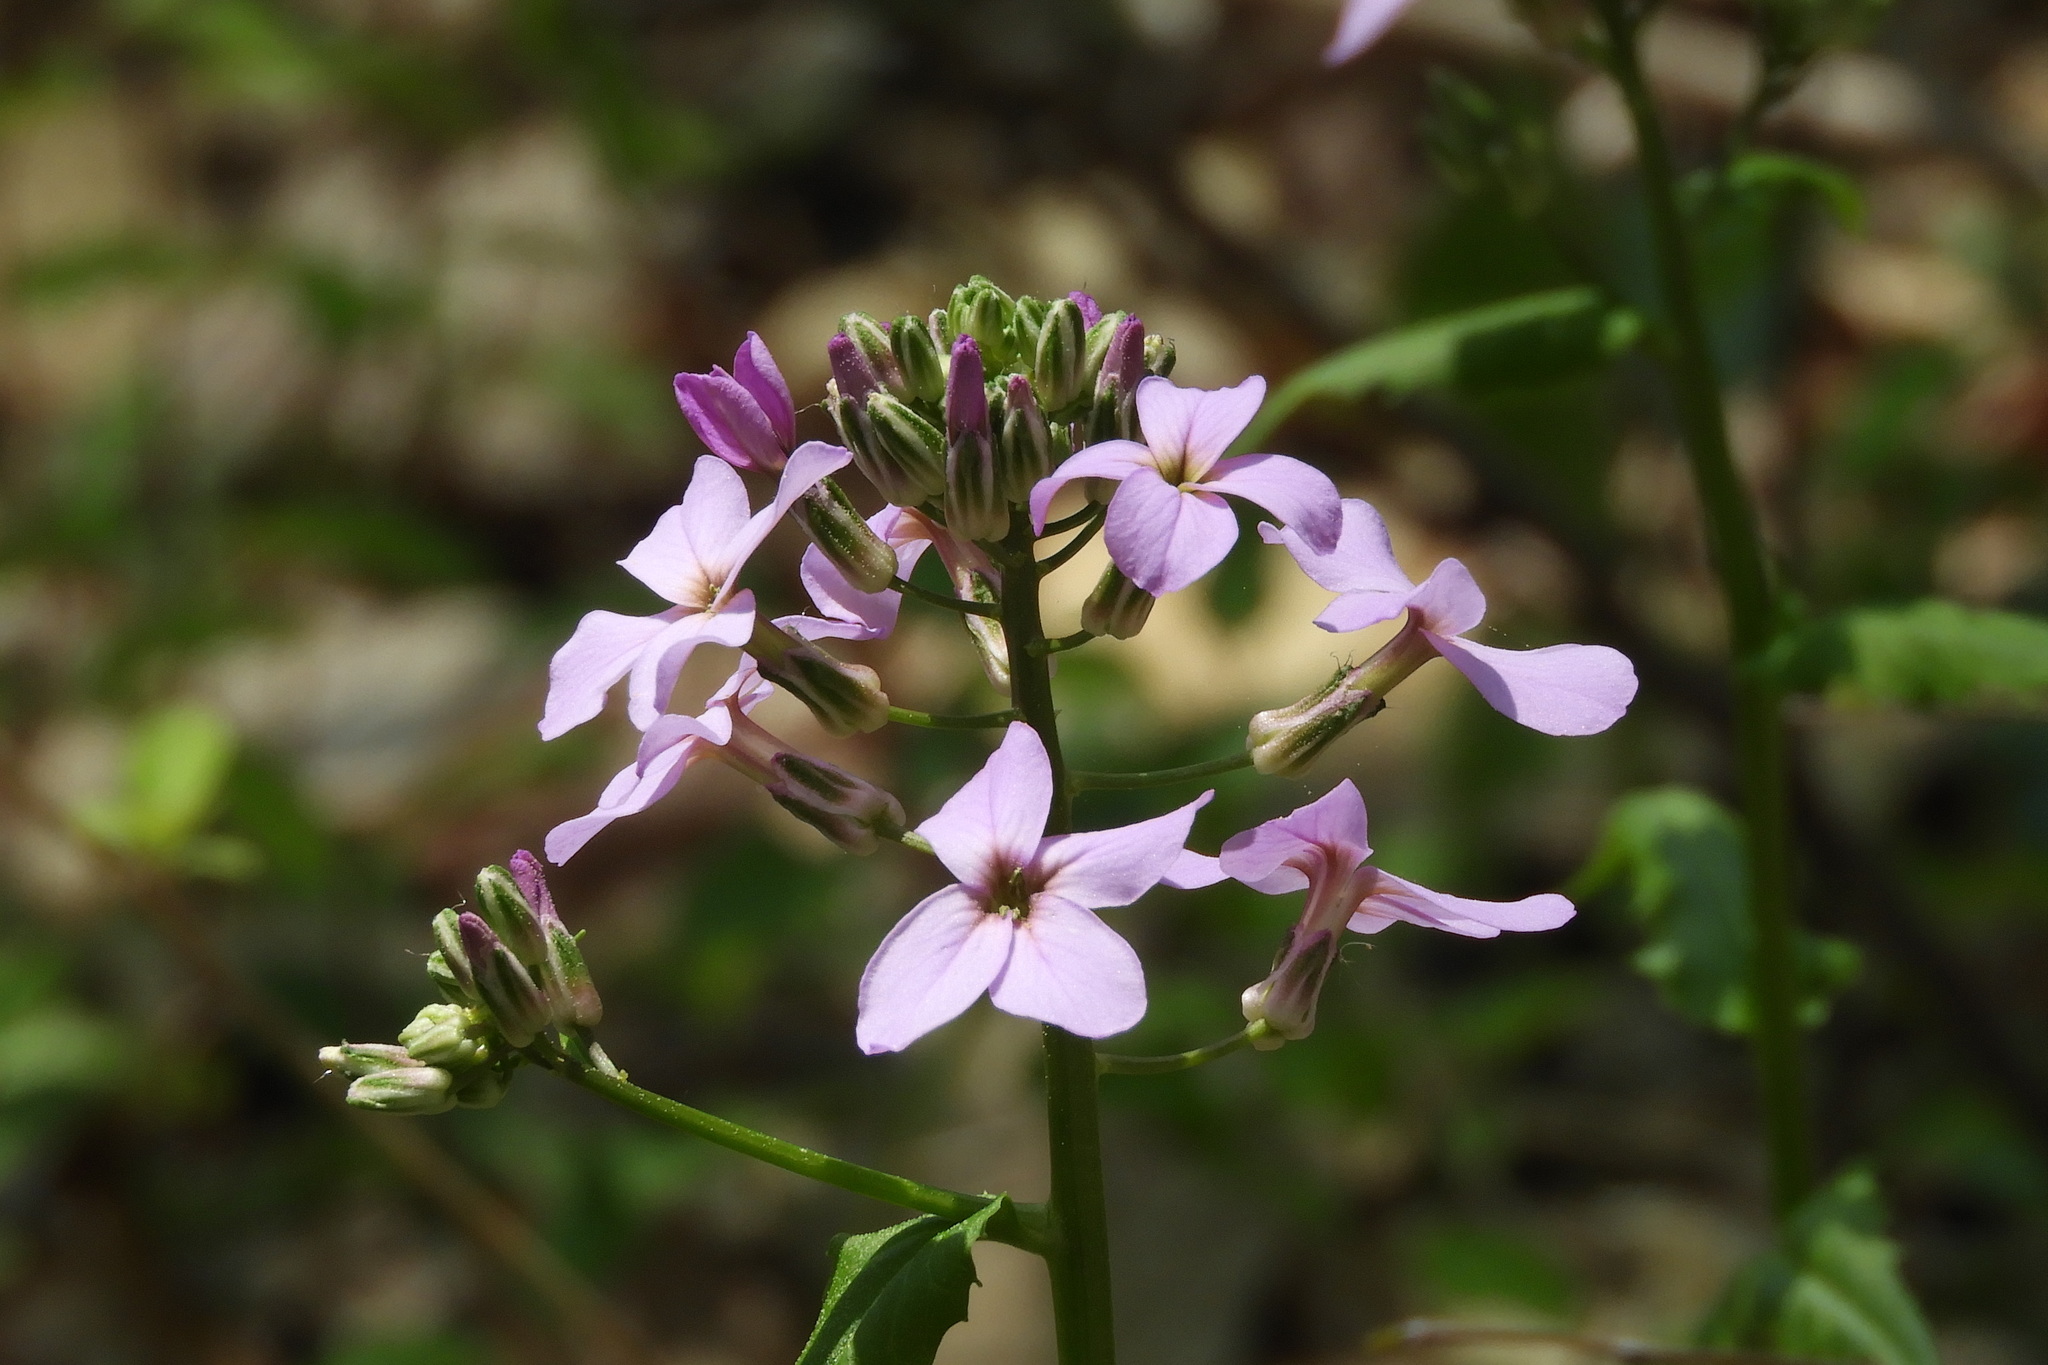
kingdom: Plantae
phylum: Tracheophyta
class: Magnoliopsida
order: Brassicales
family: Brassicaceae
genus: Hesperis
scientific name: Hesperis matronalis
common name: Dame's-violet
